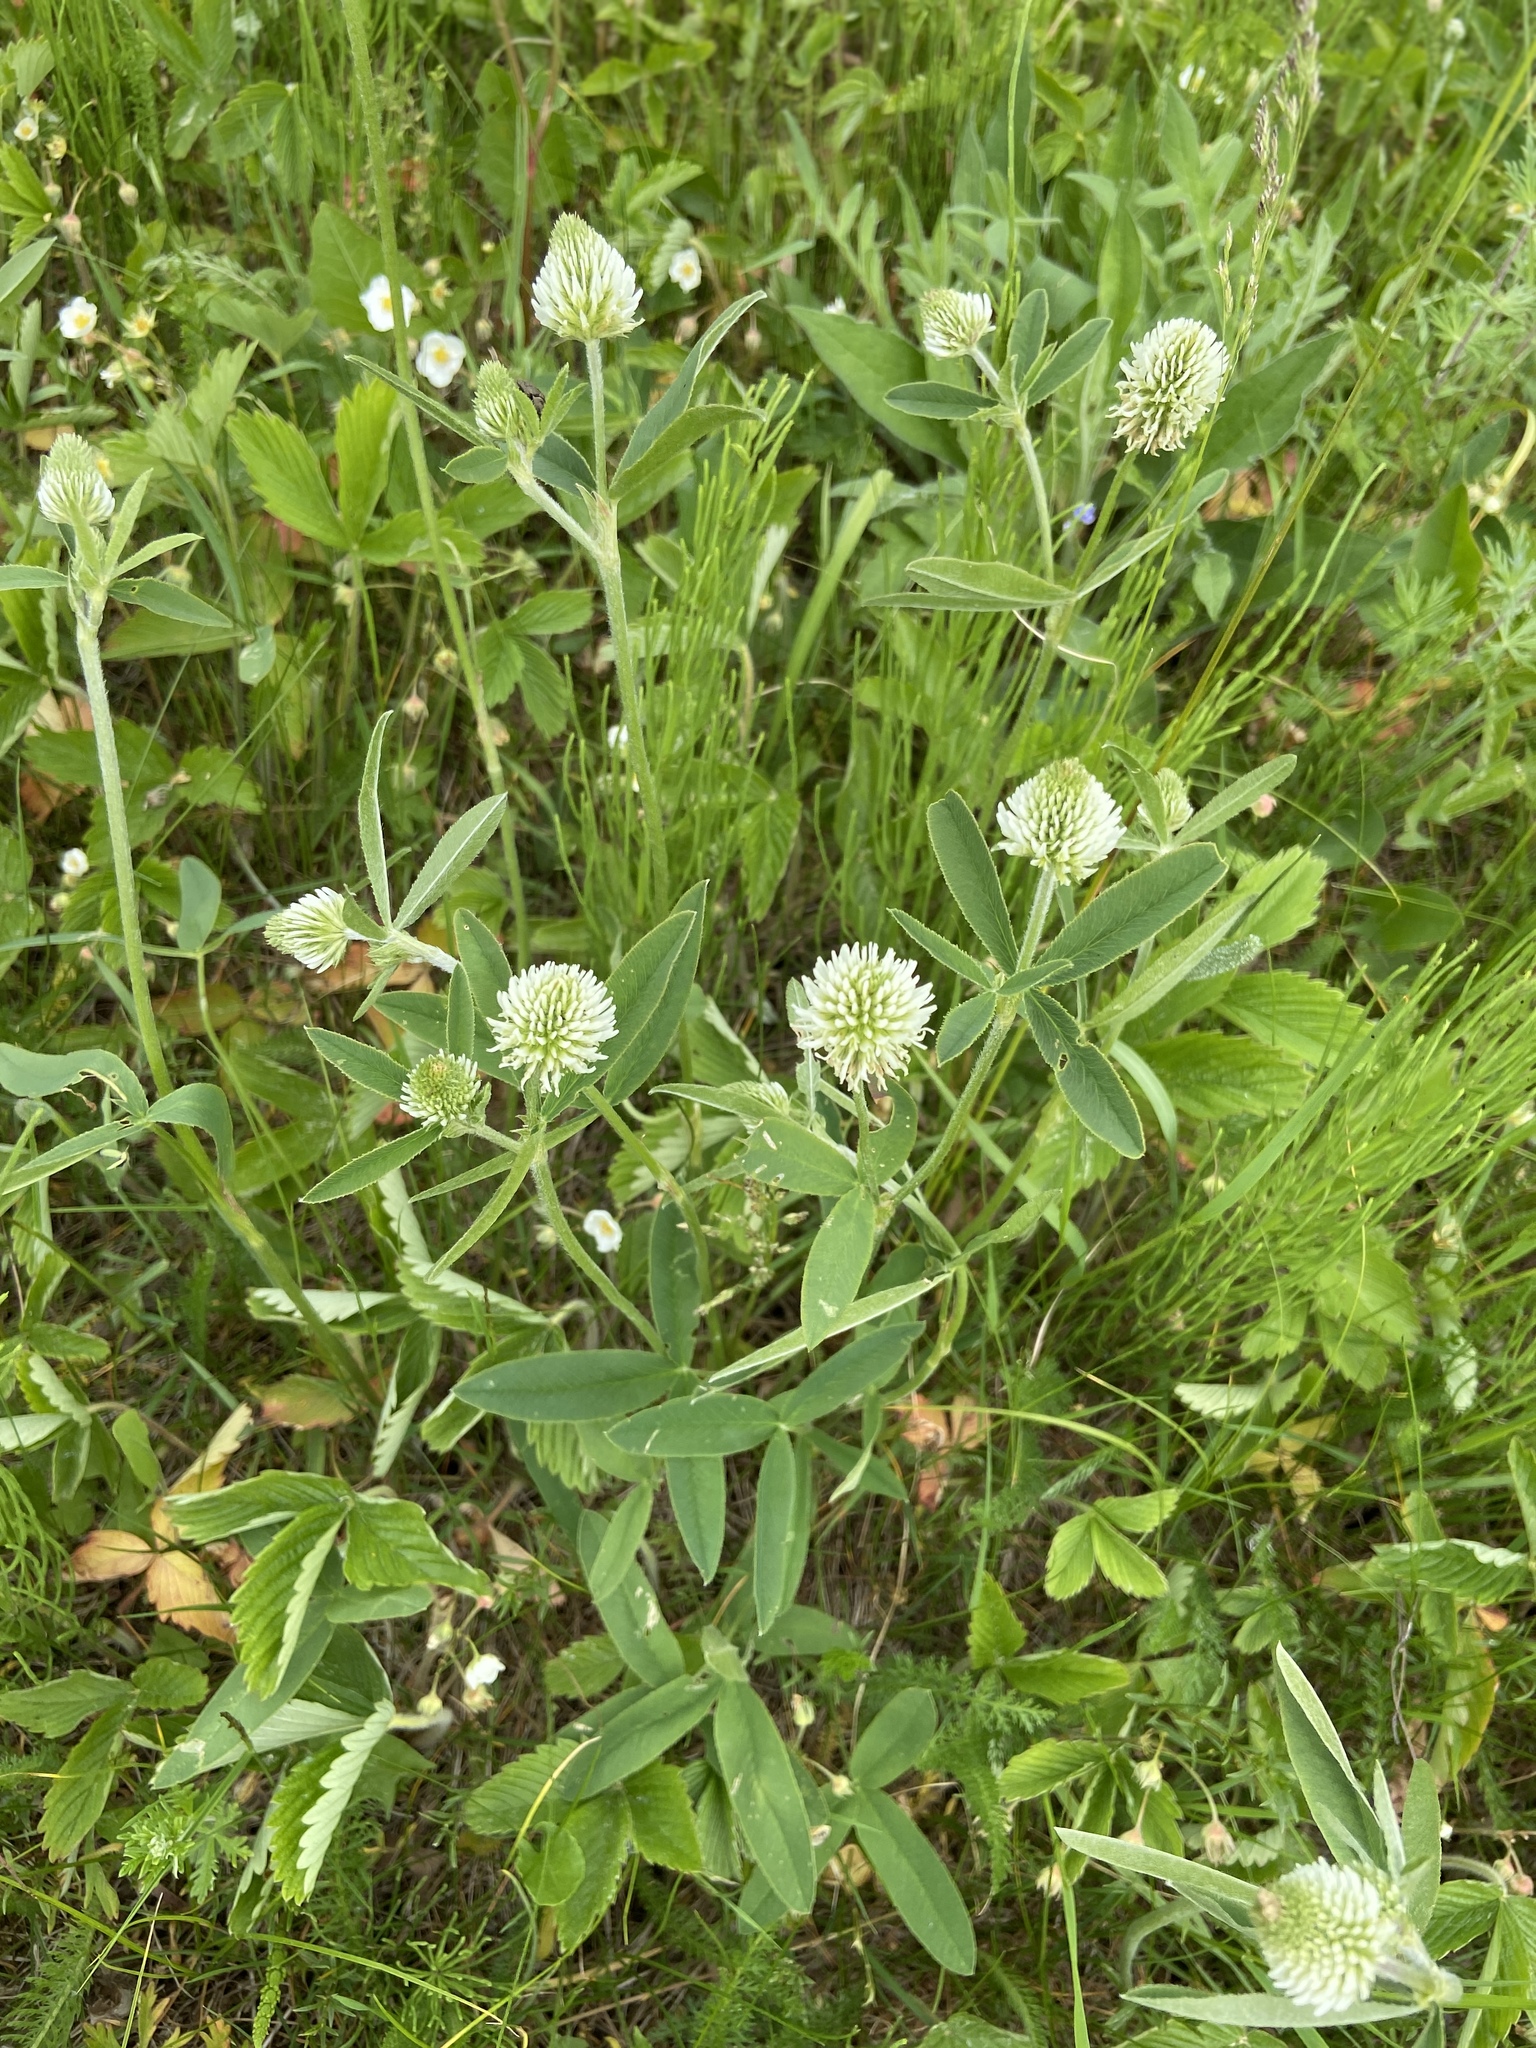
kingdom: Plantae
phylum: Tracheophyta
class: Magnoliopsida
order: Fabales
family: Fabaceae
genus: Trifolium
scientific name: Trifolium montanum
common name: Mountain clover
